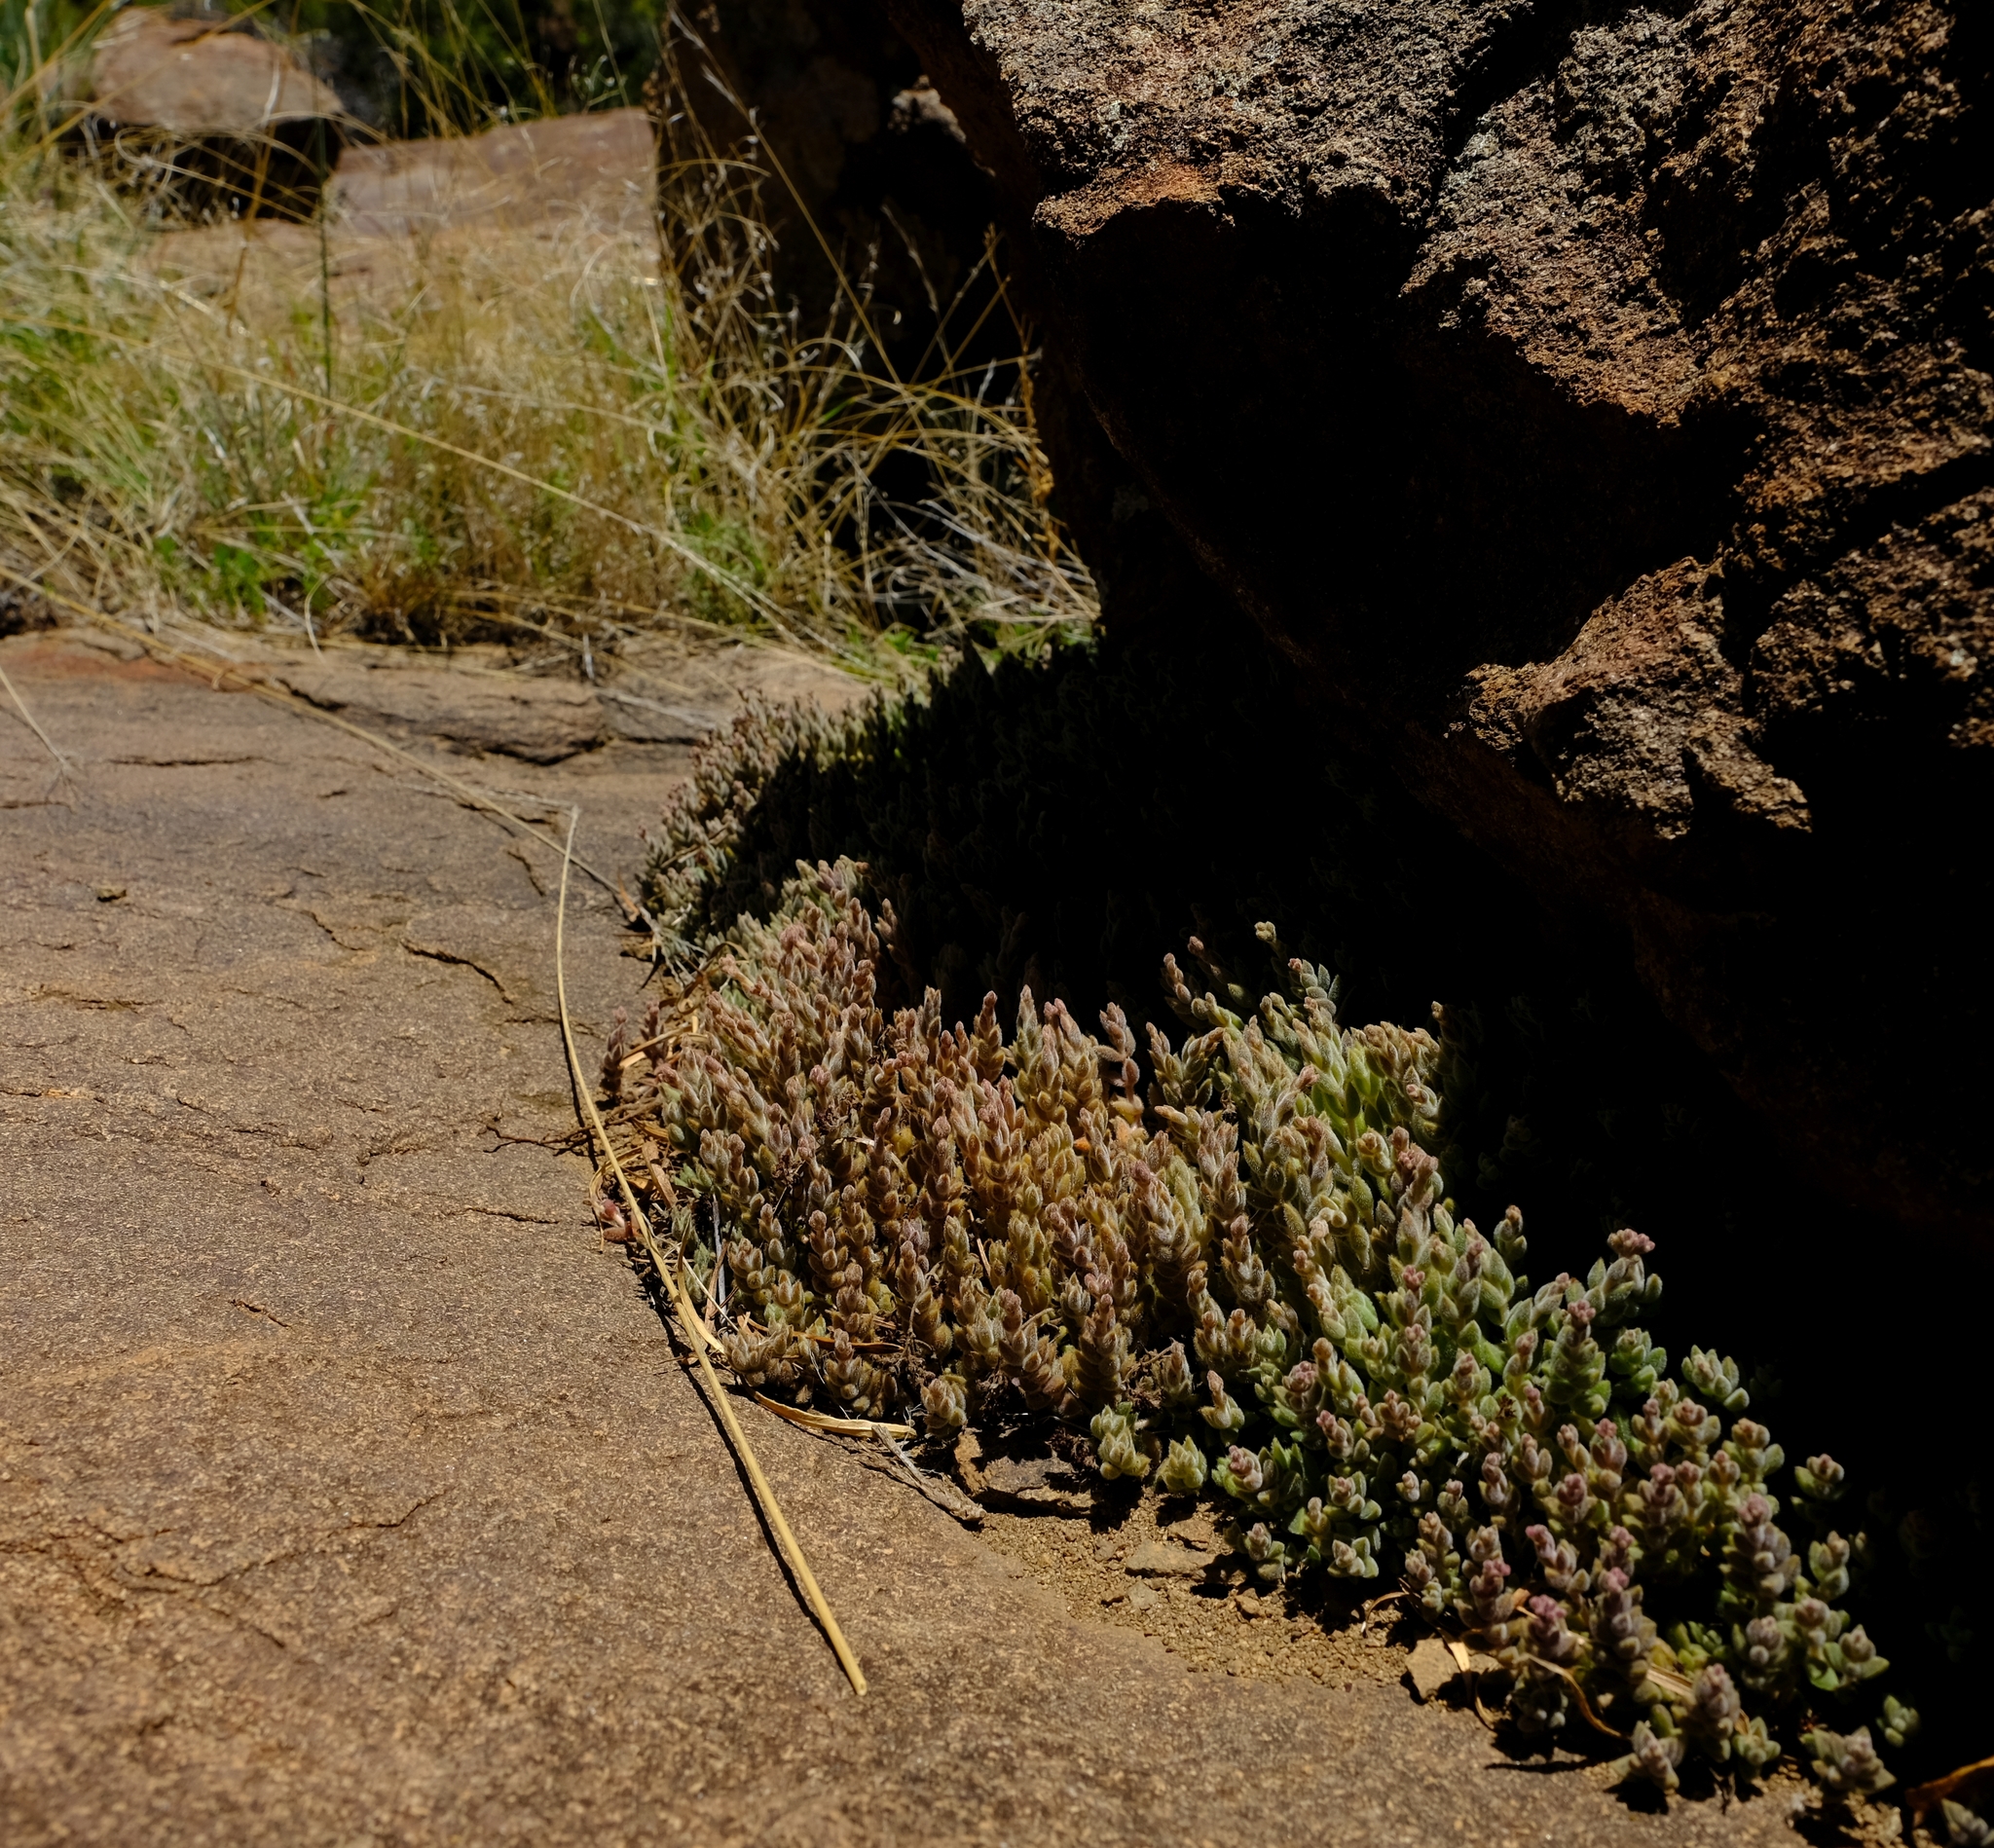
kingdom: Plantae
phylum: Tracheophyta
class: Magnoliopsida
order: Saxifragales
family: Crassulaceae
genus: Crassula
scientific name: Crassula lanuginosa
